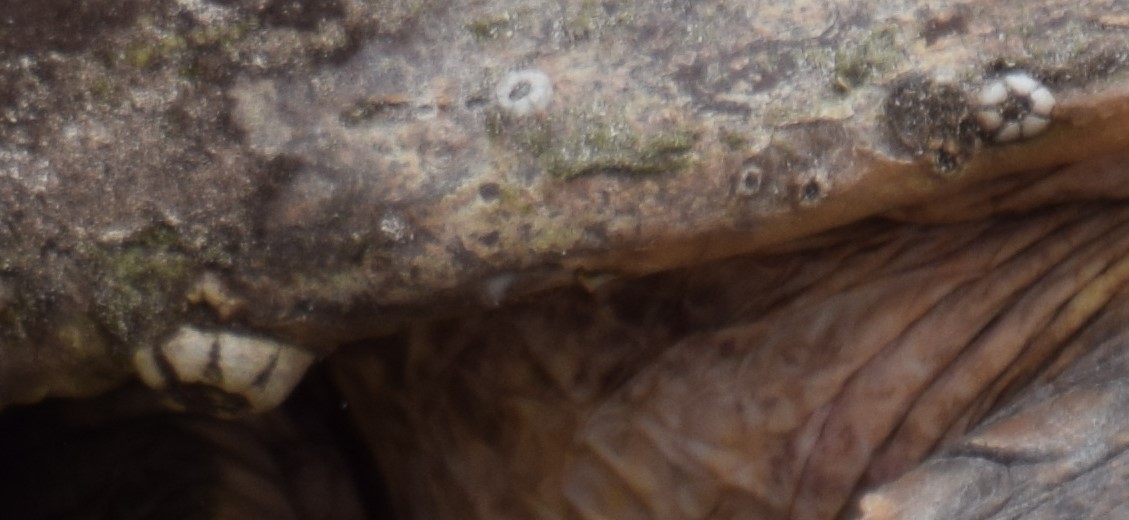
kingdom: Animalia
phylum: Arthropoda
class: Maxillopoda
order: Sessilia
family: Chelonibiidae
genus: Chelonibia
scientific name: Chelonibia testudinaria
